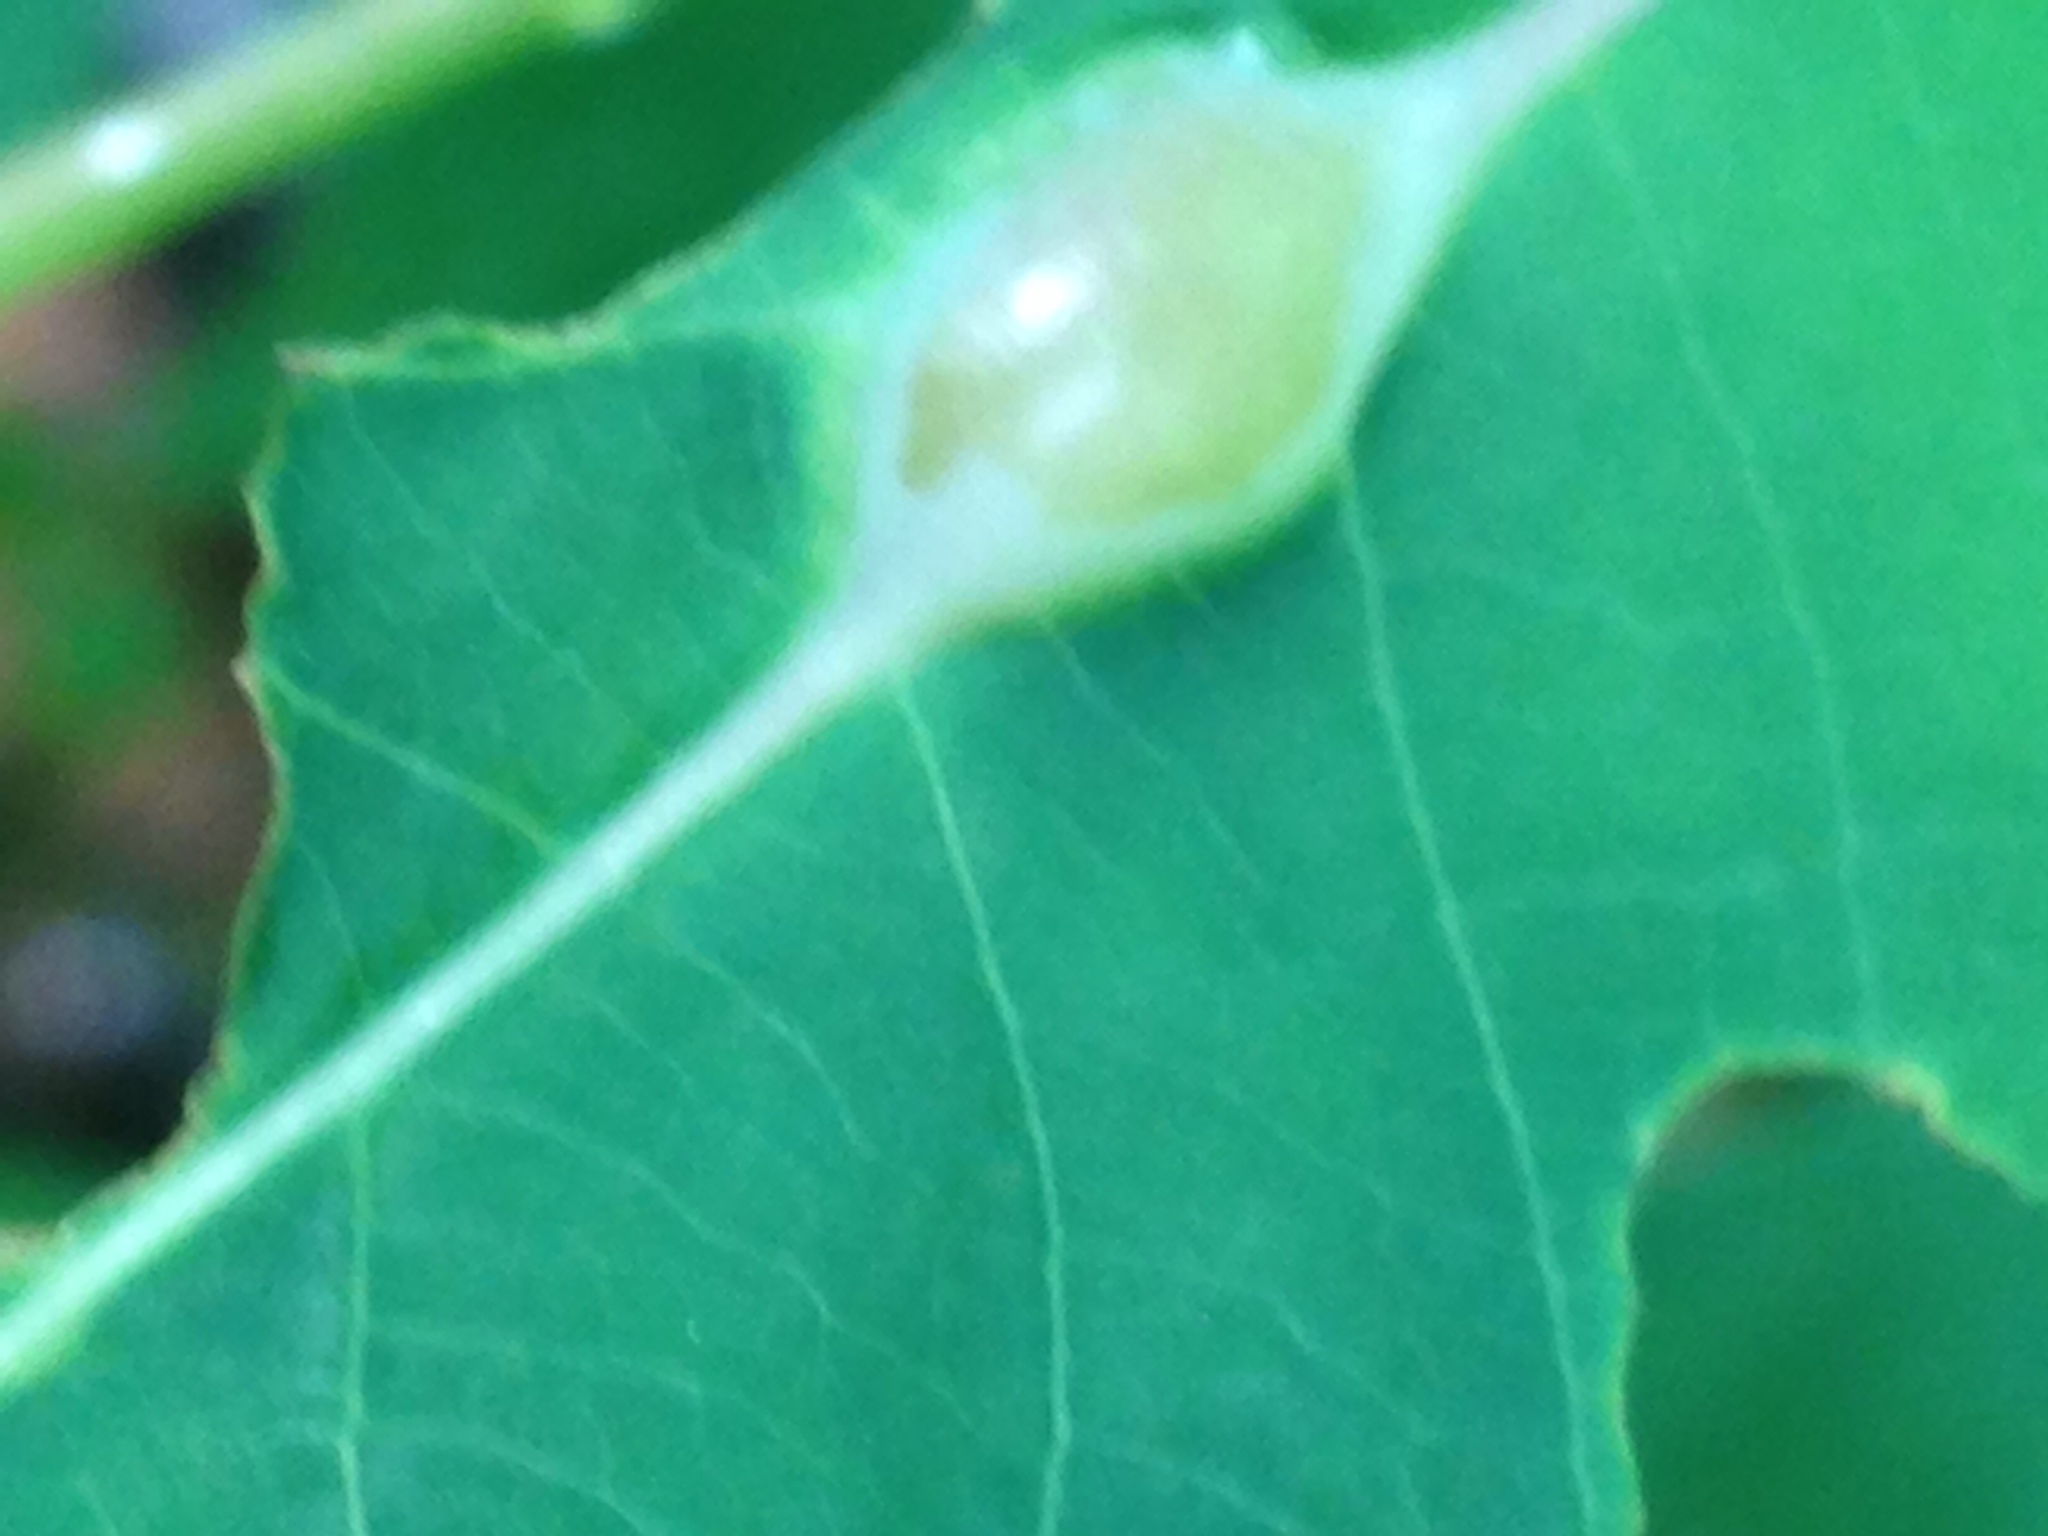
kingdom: Animalia
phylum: Arthropoda
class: Insecta
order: Diptera
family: Cecidomyiidae
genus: Neolasioptera
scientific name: Neolasioptera impatientifolia
